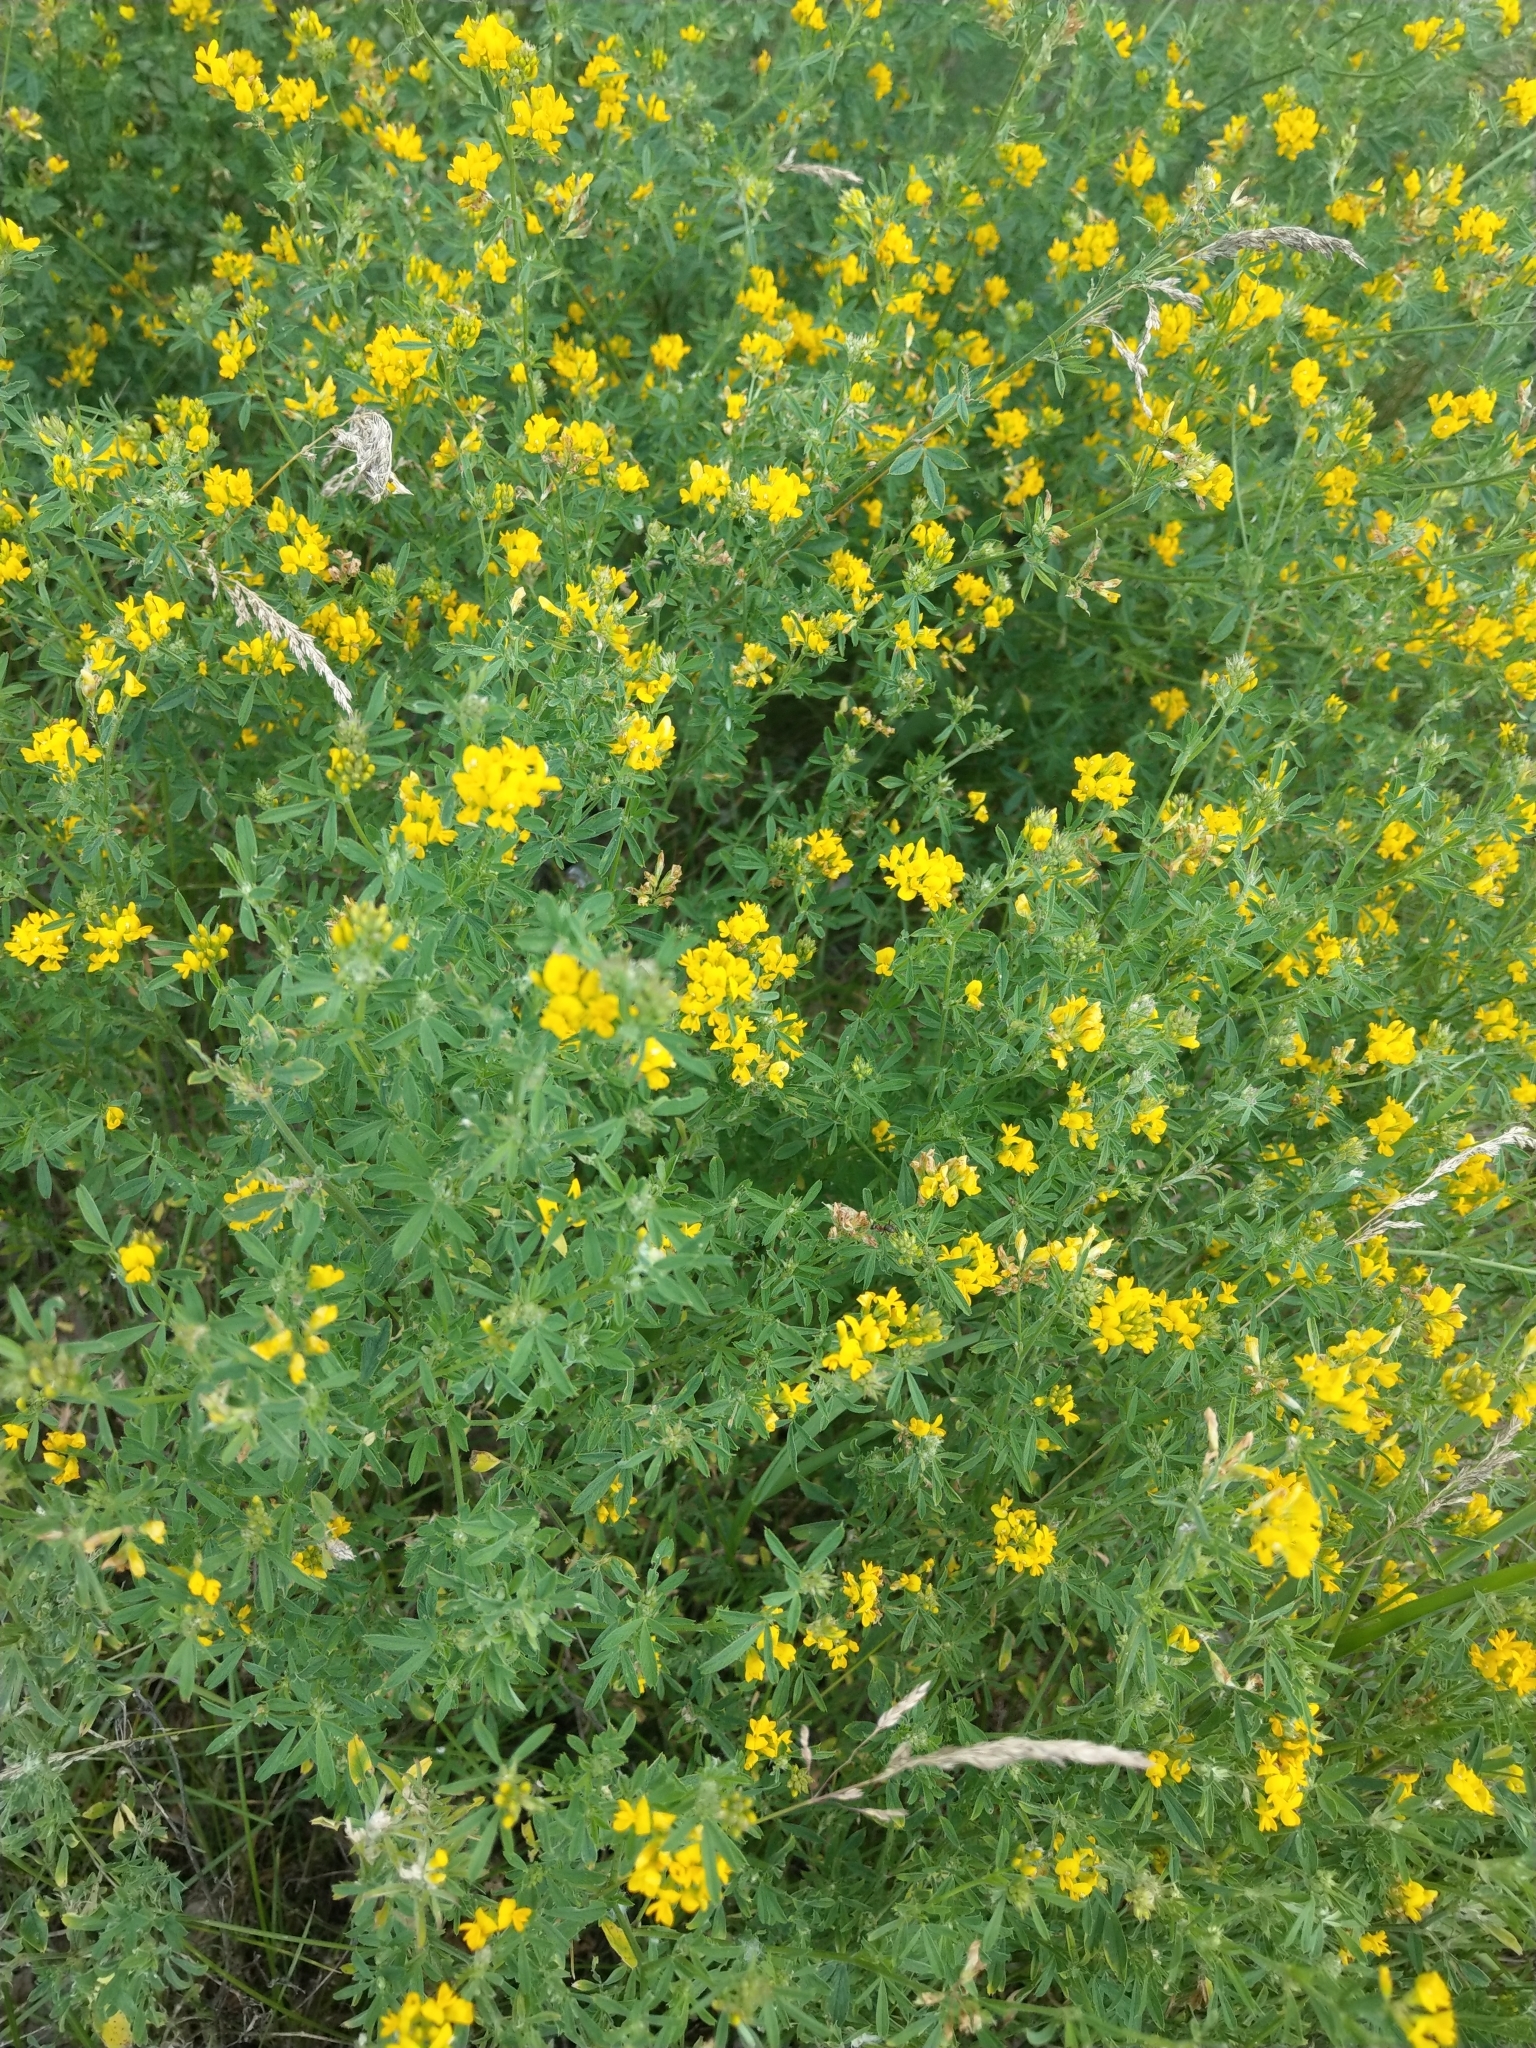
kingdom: Plantae
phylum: Tracheophyta
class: Magnoliopsida
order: Fabales
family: Fabaceae
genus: Medicago
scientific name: Medicago falcata
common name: Sickle medick
